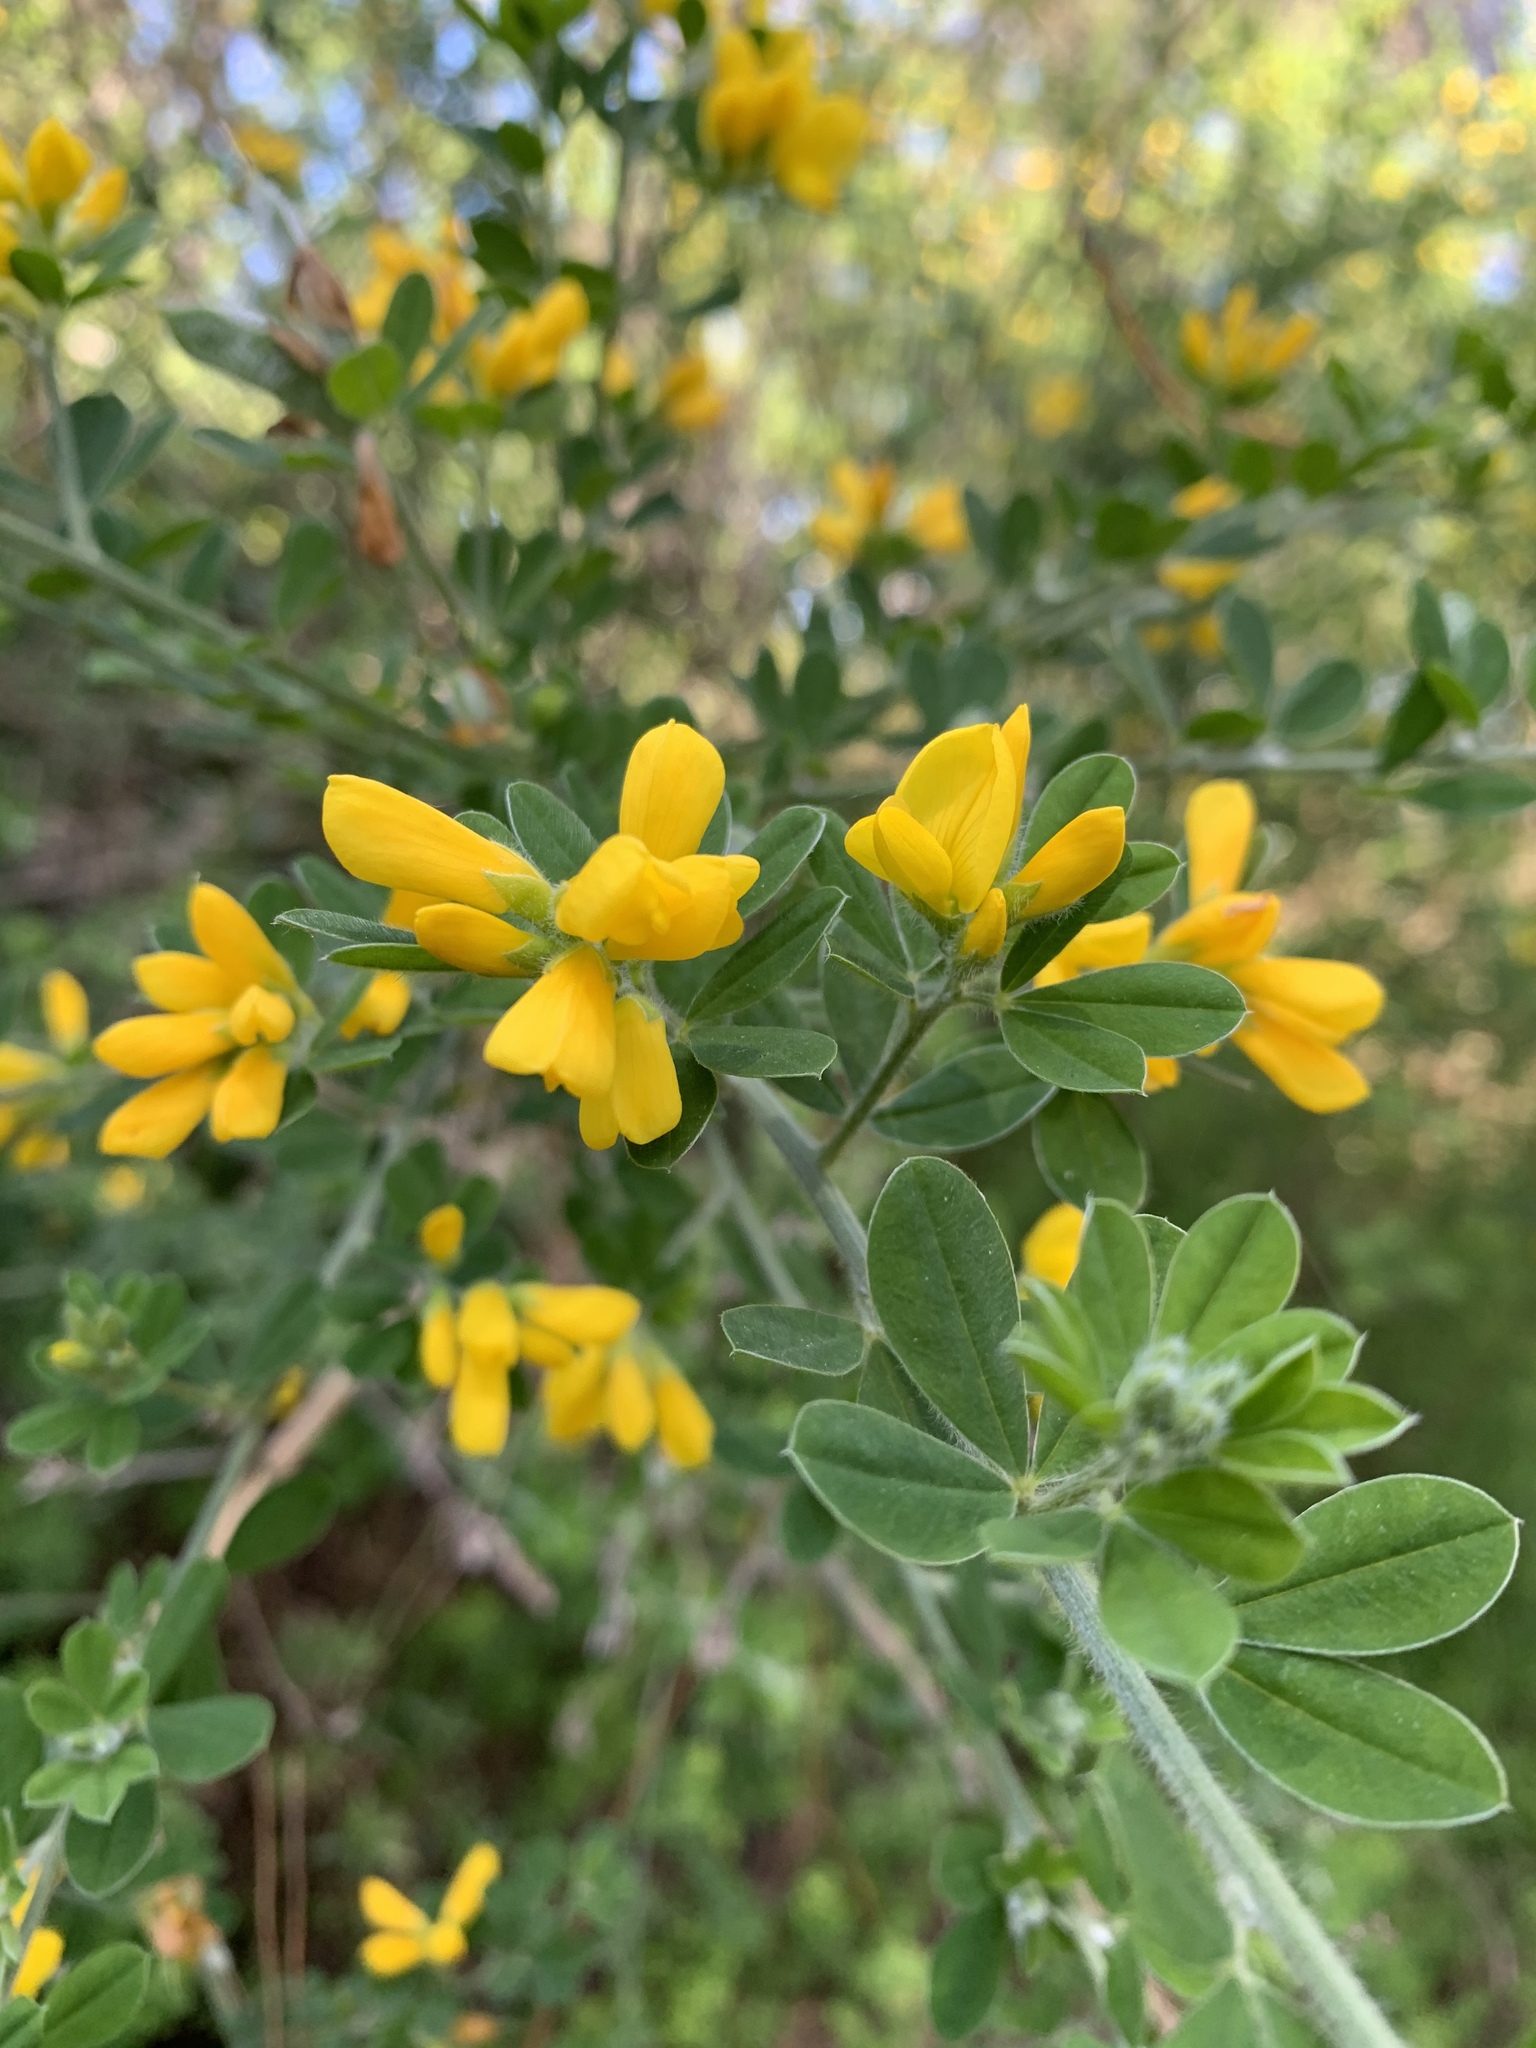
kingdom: Plantae
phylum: Tracheophyta
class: Magnoliopsida
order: Fabales
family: Fabaceae
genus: Genista
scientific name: Genista monspessulana
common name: Montpellier broom
